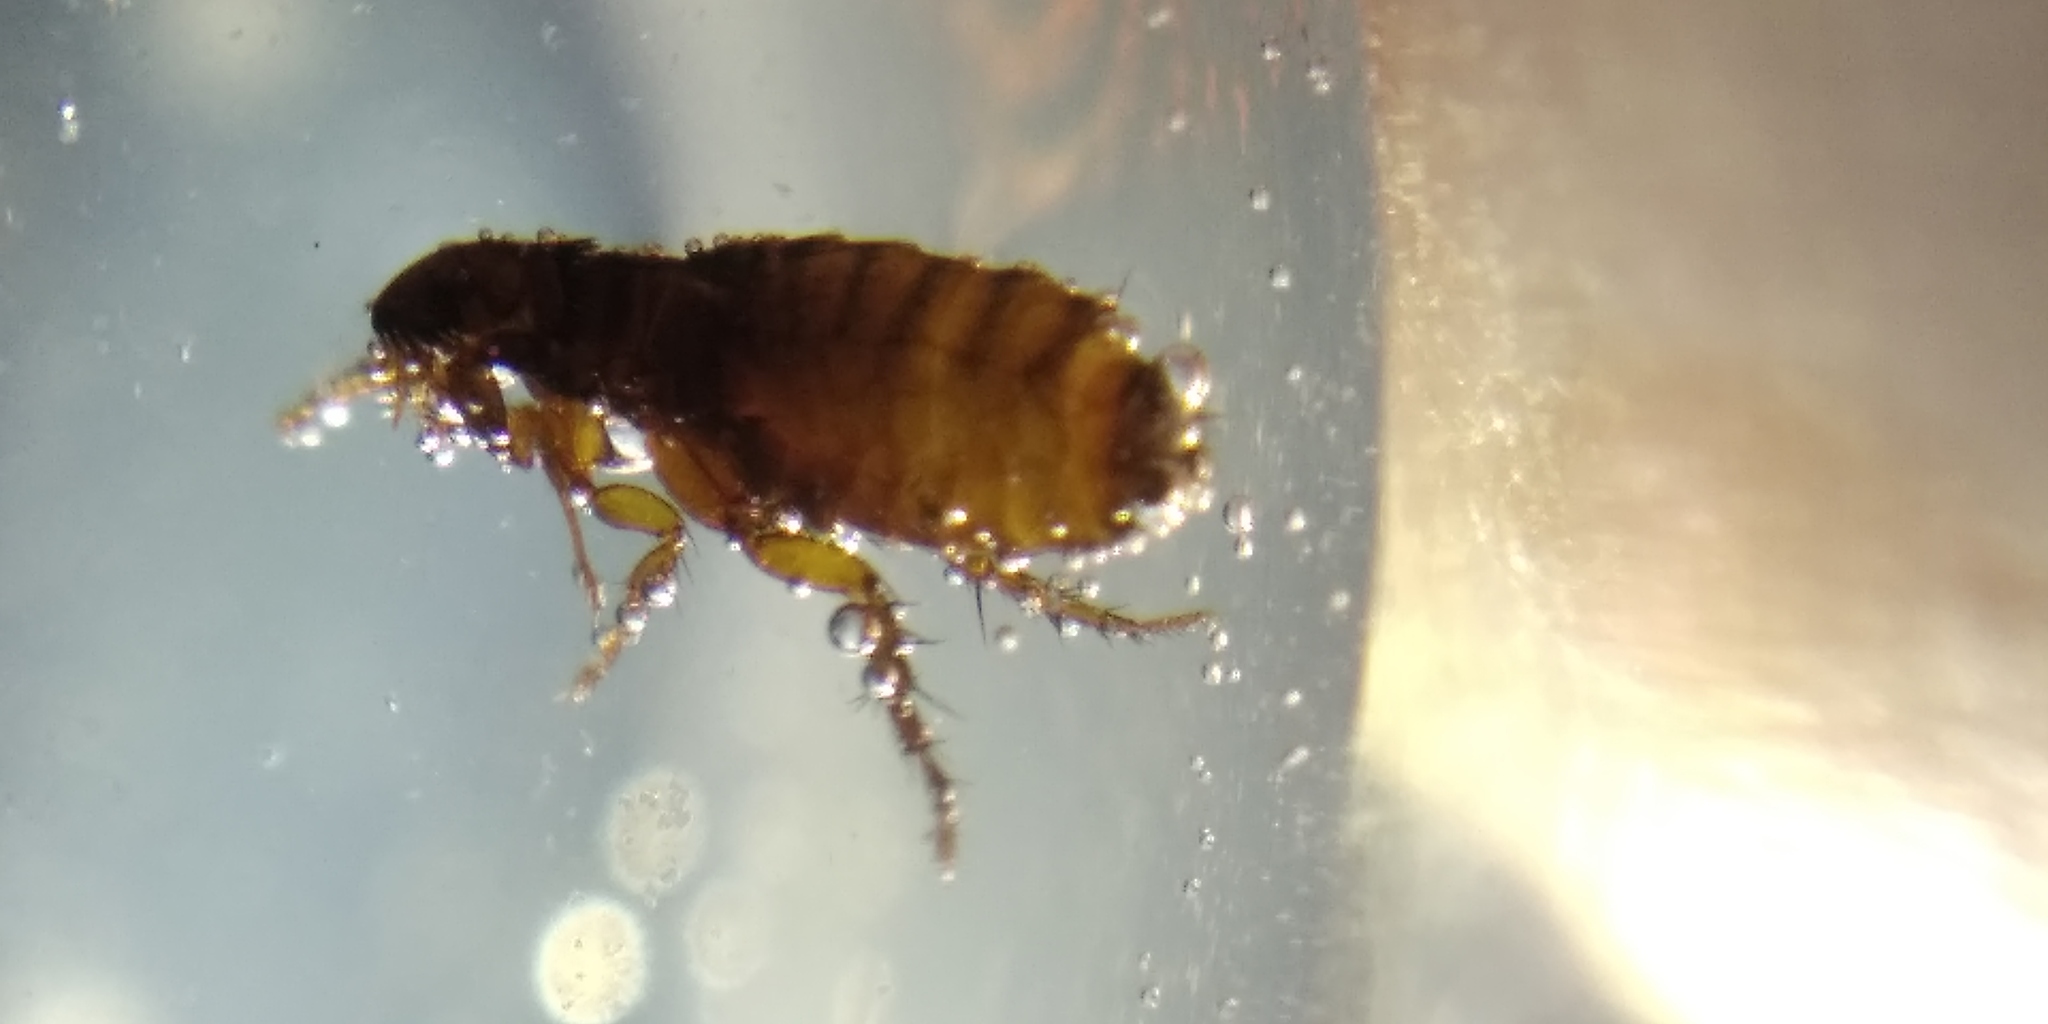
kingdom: Animalia
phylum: Arthropoda
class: Insecta
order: Siphonaptera
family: Pulicidae
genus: Ctenocephalides
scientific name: Ctenocephalides felis
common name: Cat flea
